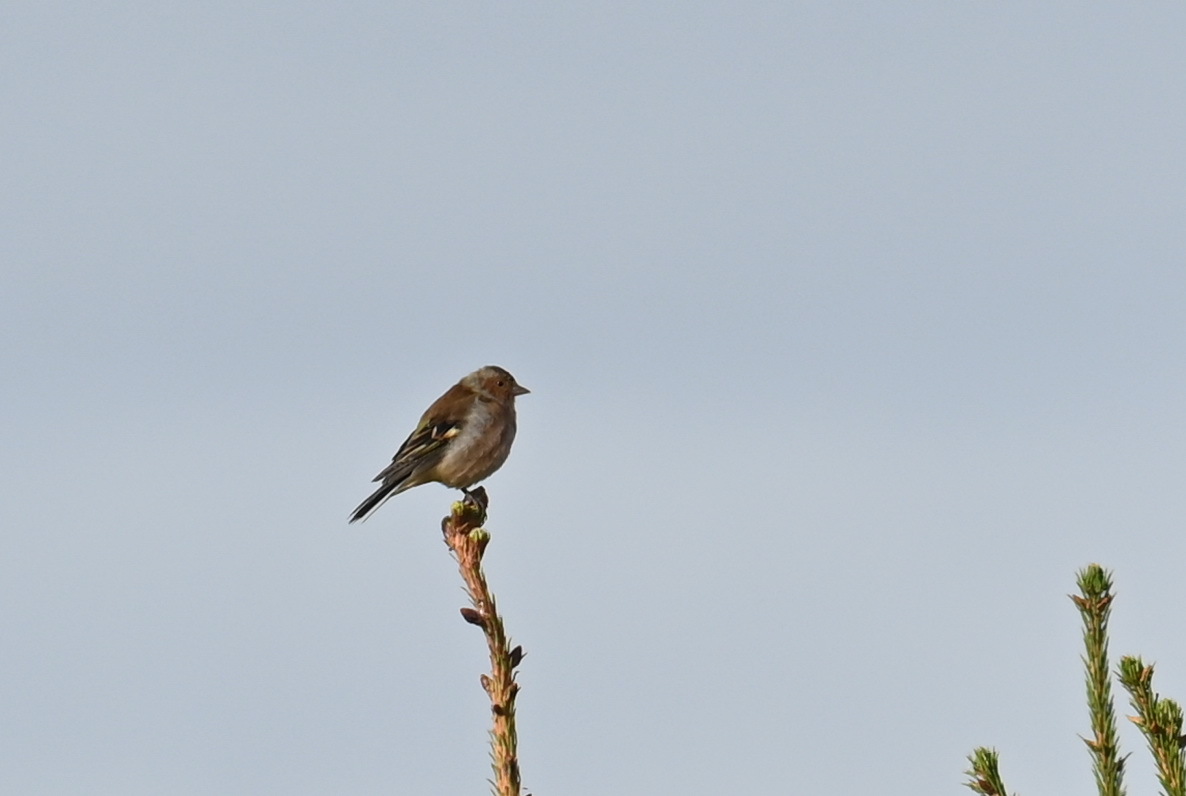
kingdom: Animalia
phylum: Chordata
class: Aves
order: Passeriformes
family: Fringillidae
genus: Fringilla
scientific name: Fringilla coelebs
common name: Common chaffinch
